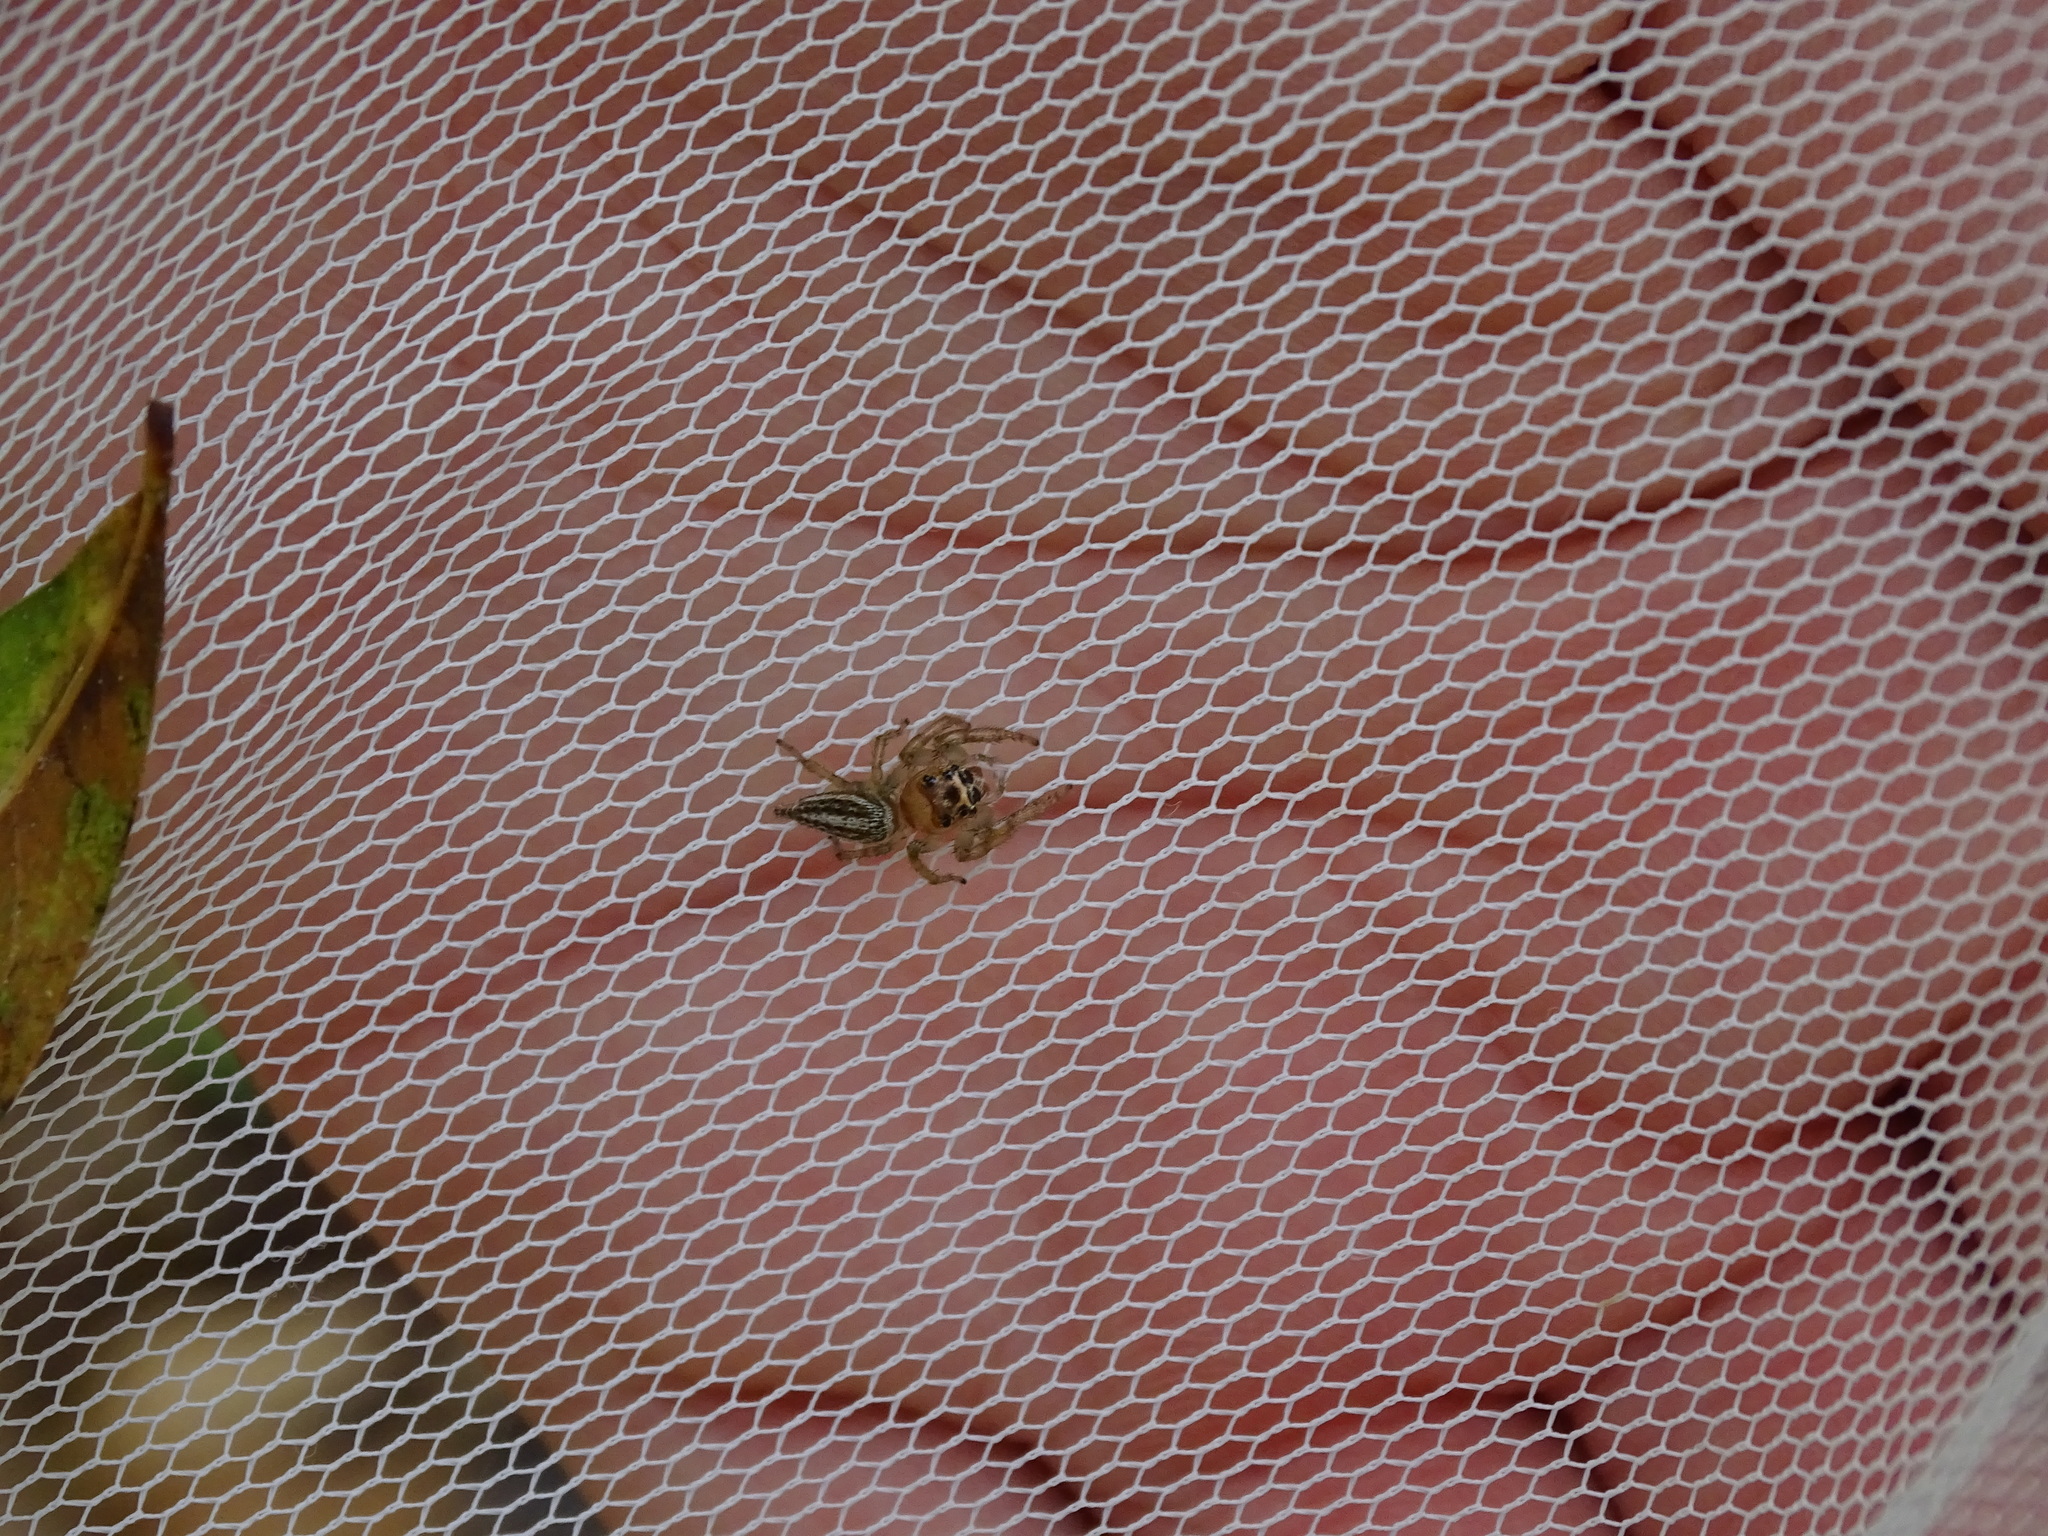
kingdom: Animalia
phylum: Arthropoda
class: Arachnida
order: Araneae
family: Salticidae
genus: Colonus
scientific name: Colonus sylvanus
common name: Jumping spiders
